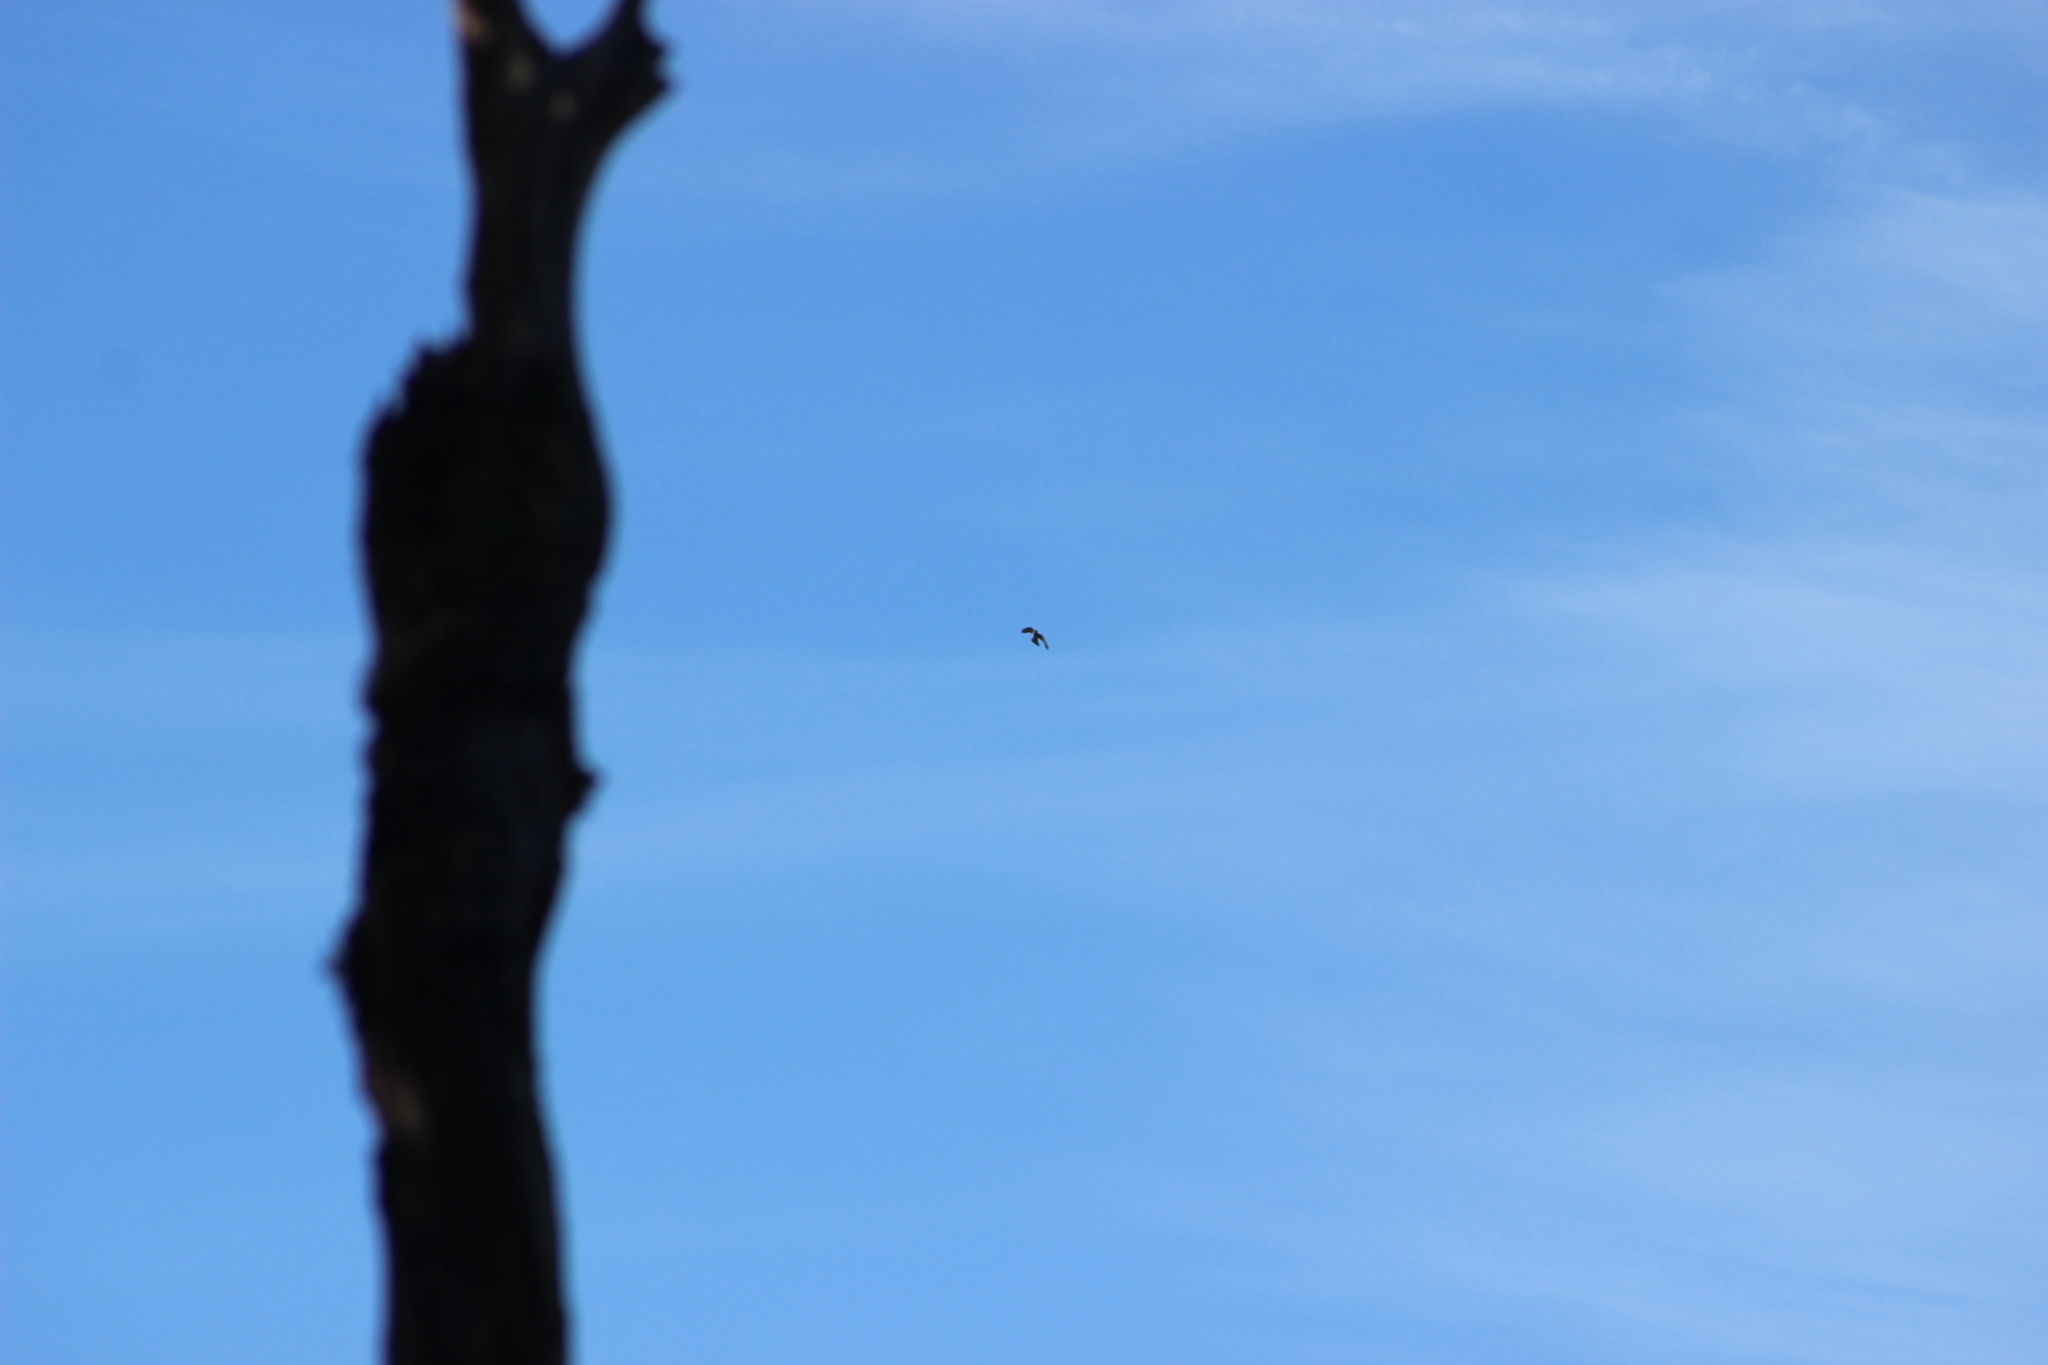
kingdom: Animalia
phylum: Chordata
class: Aves
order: Falconiformes
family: Falconidae
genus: Falco
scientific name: Falco novaeseelandiae
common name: New zealand falcon
